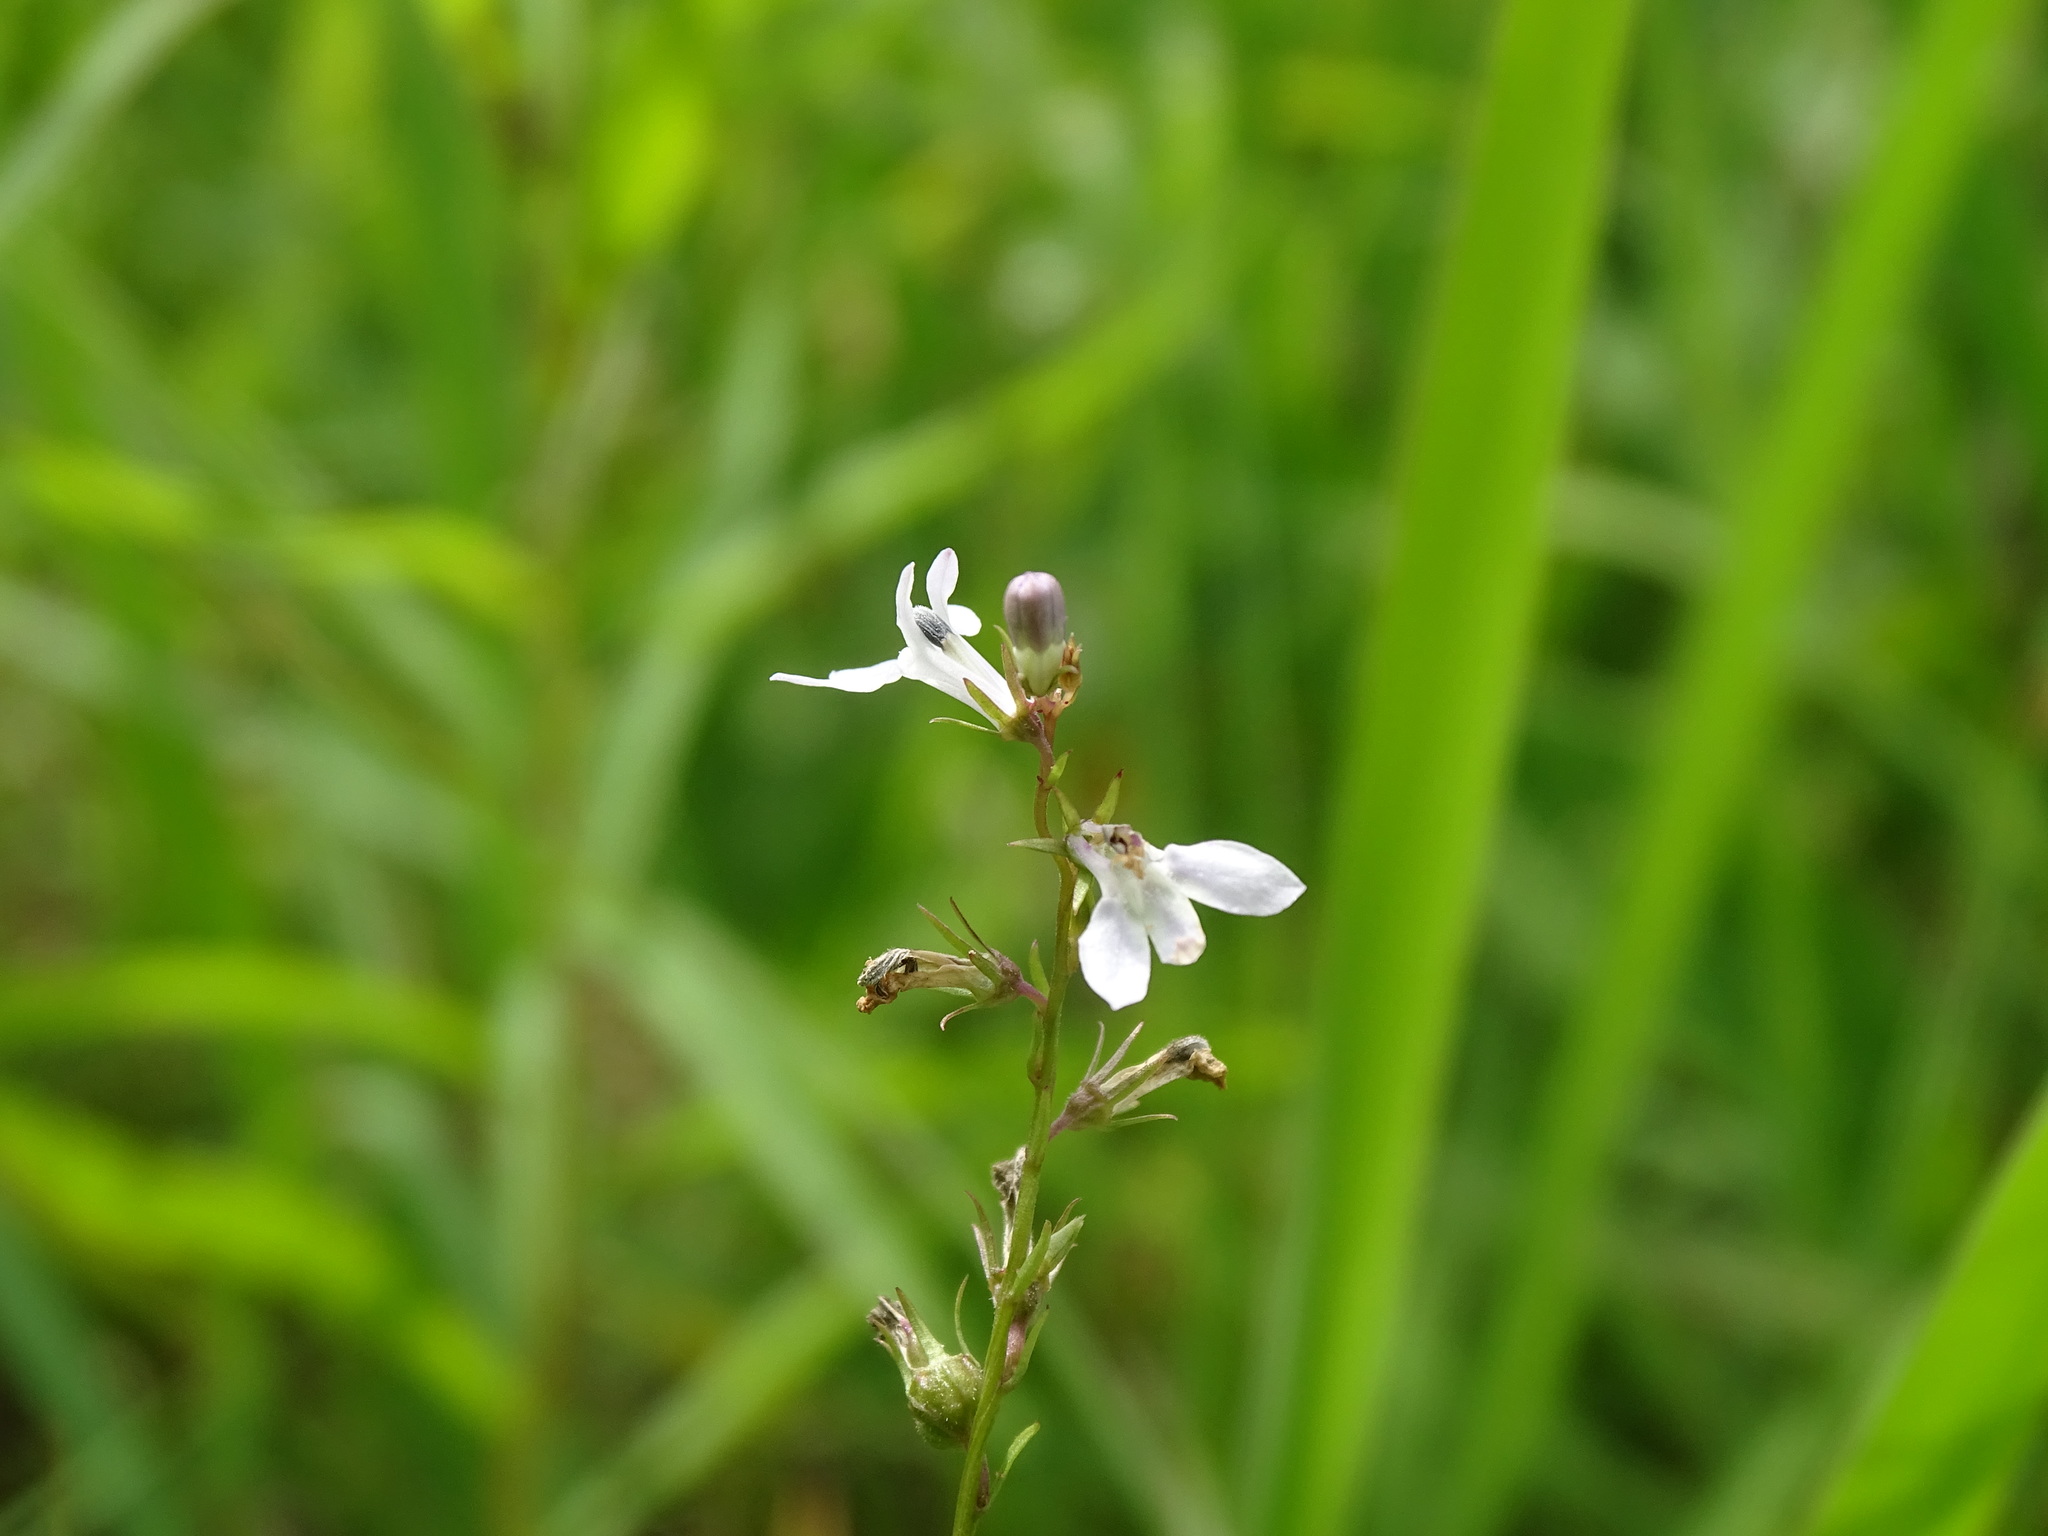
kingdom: Plantae
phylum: Tracheophyta
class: Magnoliopsida
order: Asterales
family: Campanulaceae
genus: Lobelia
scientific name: Lobelia spicata
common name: Pale-spike lobelia
